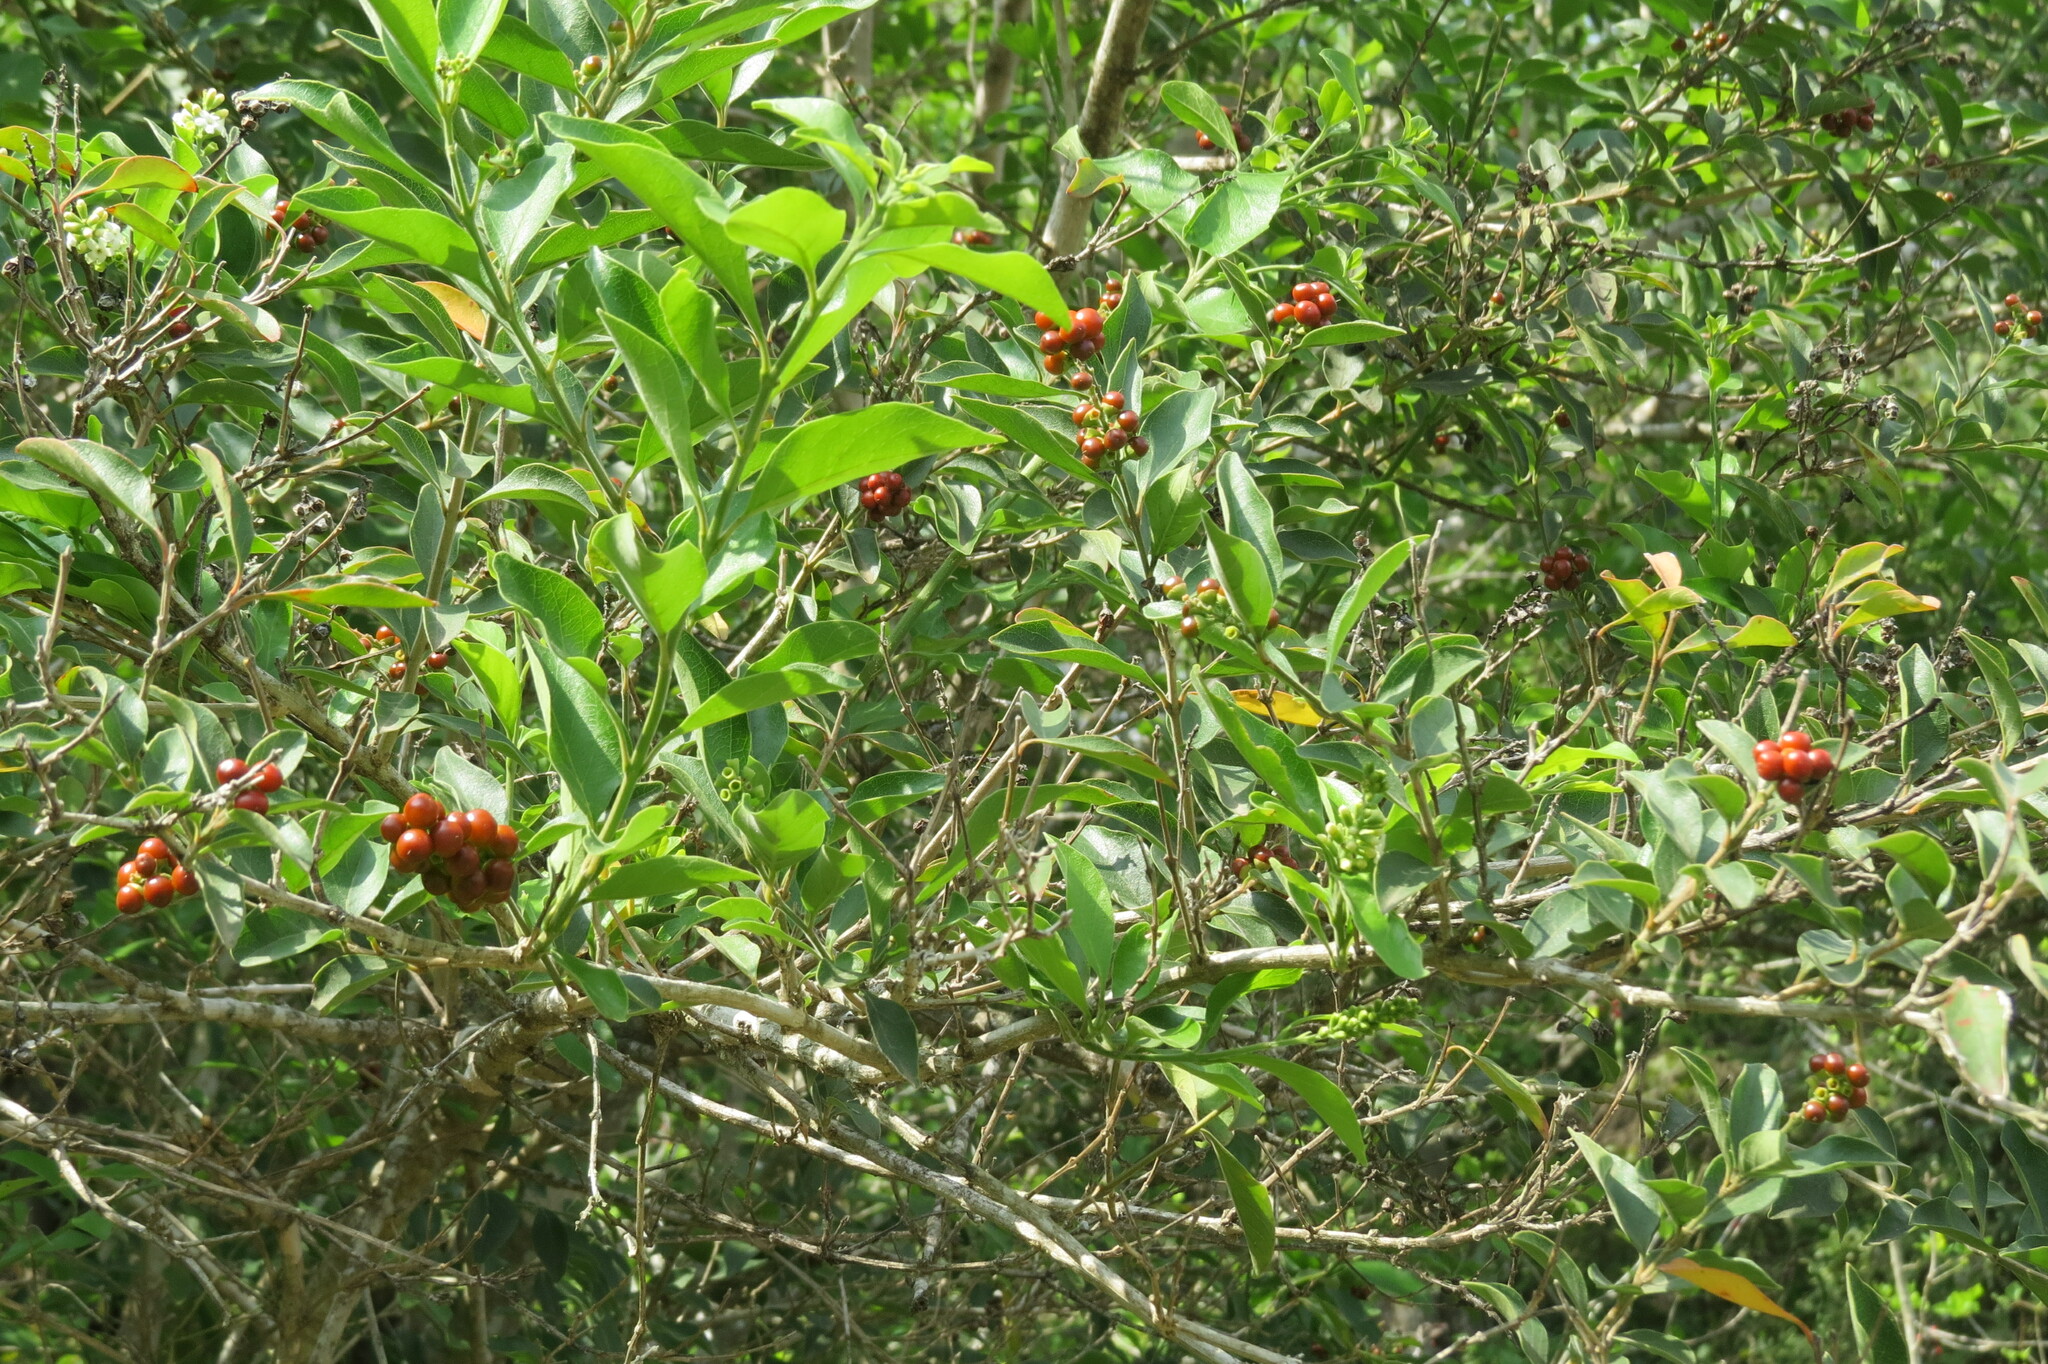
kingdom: Plantae
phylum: Tracheophyta
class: Magnoliopsida
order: Lamiales
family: Verbenaceae
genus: Citharexylum
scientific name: Citharexylum berlandieri
